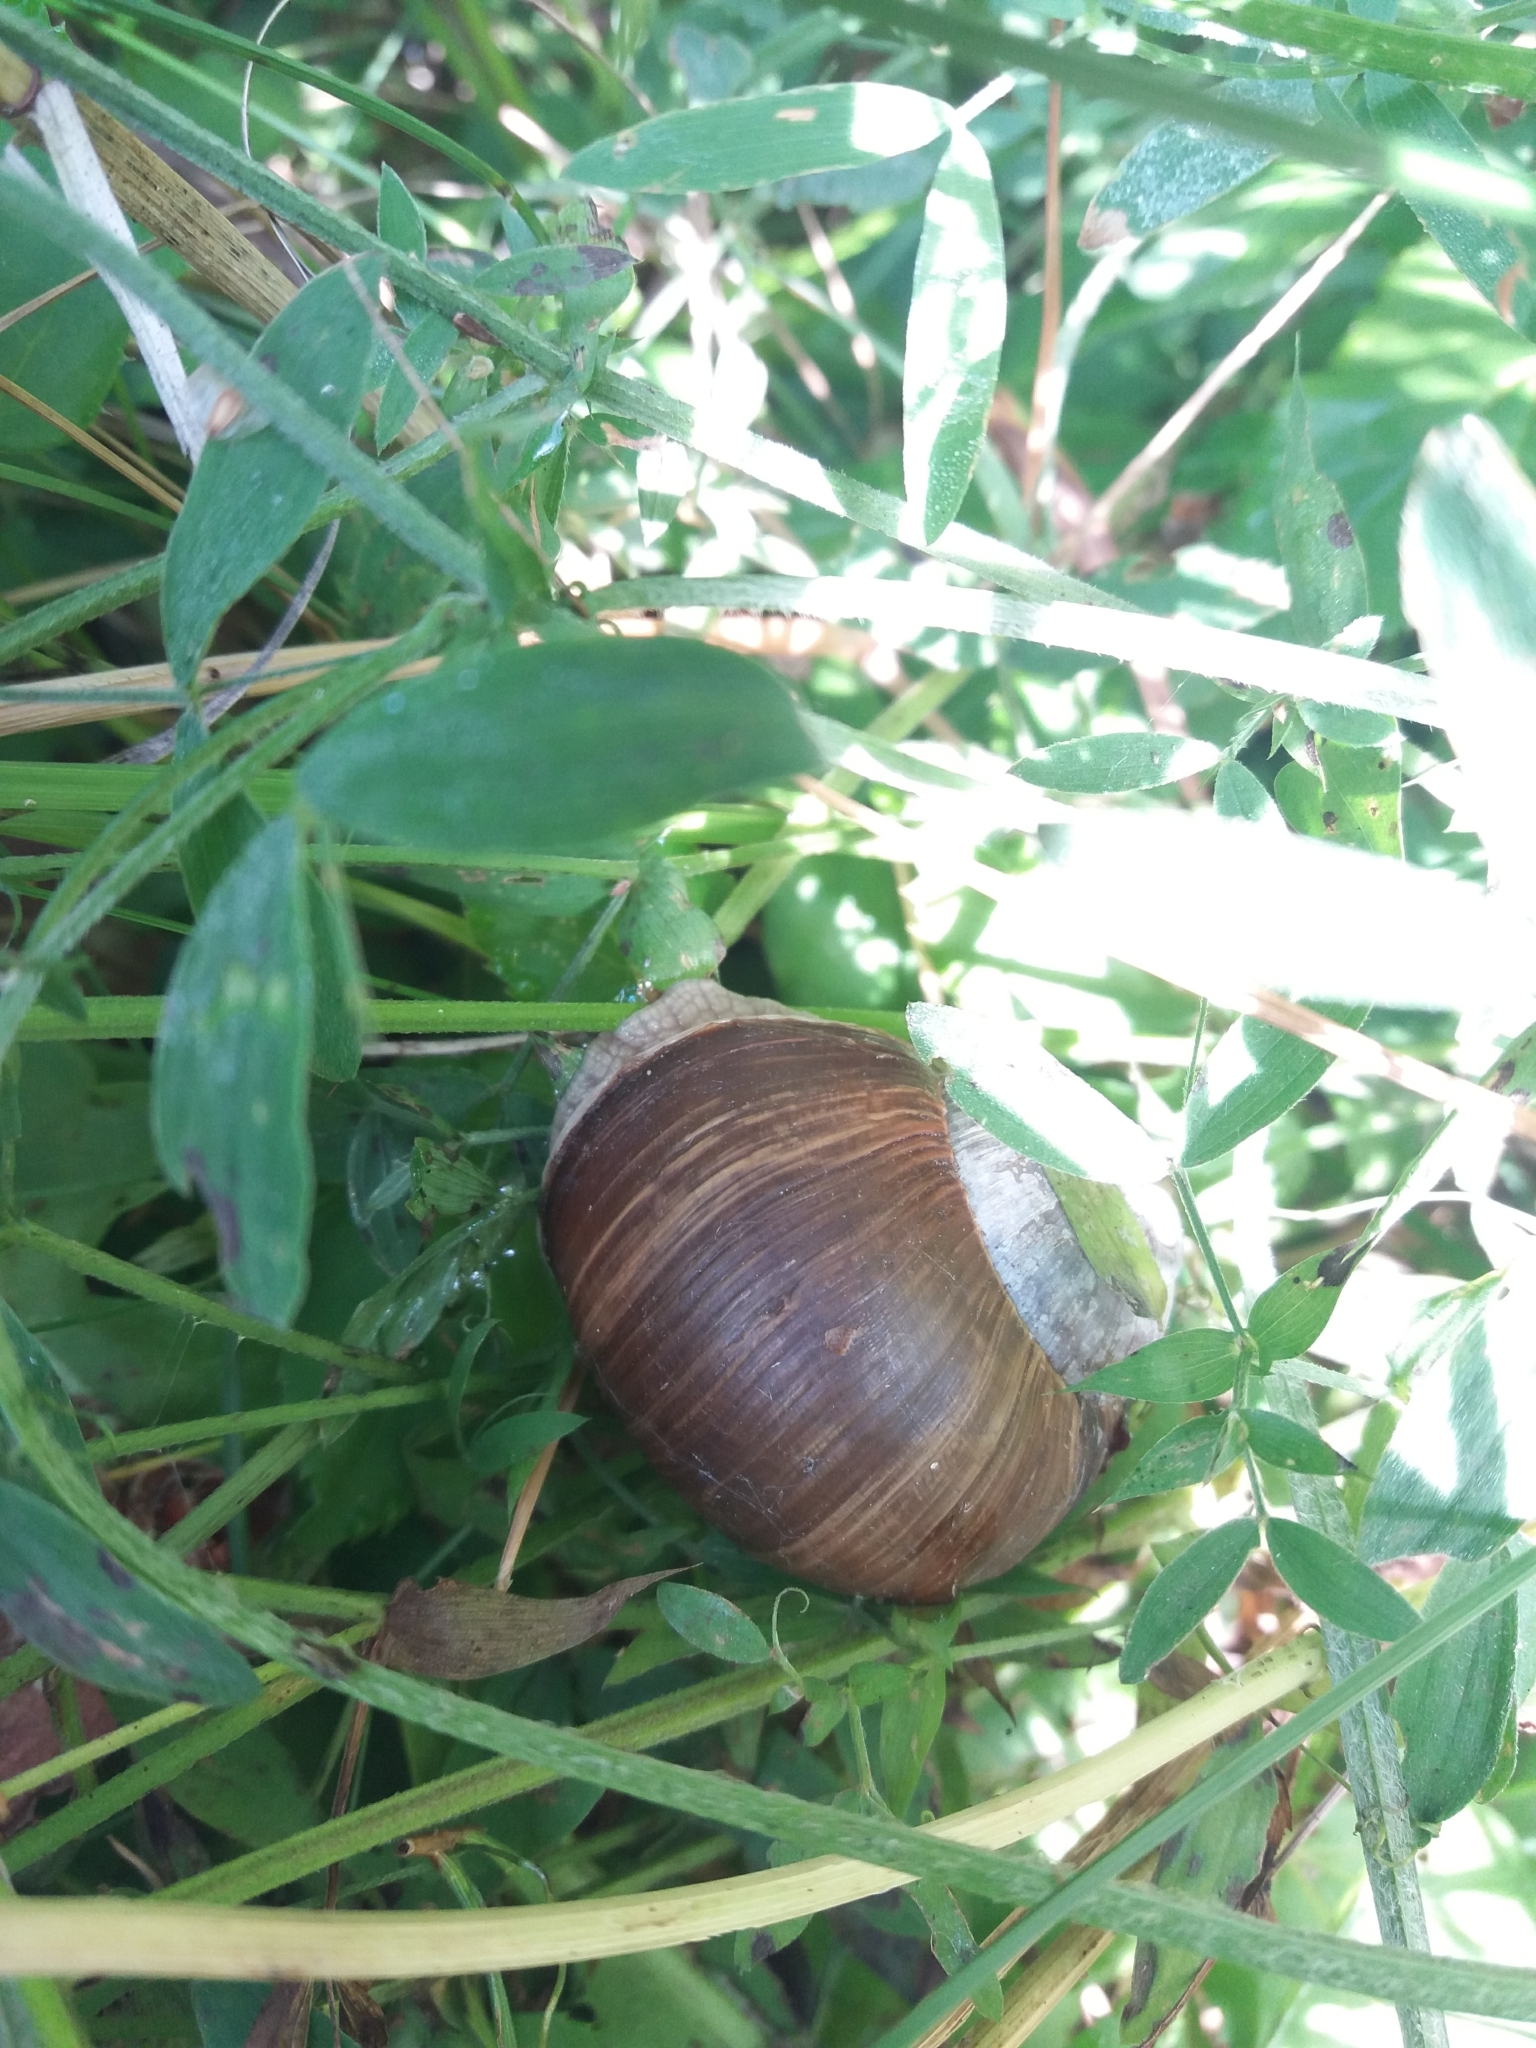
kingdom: Animalia
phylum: Mollusca
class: Gastropoda
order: Stylommatophora
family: Helicidae
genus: Helix
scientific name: Helix pomatia
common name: Roman snail
